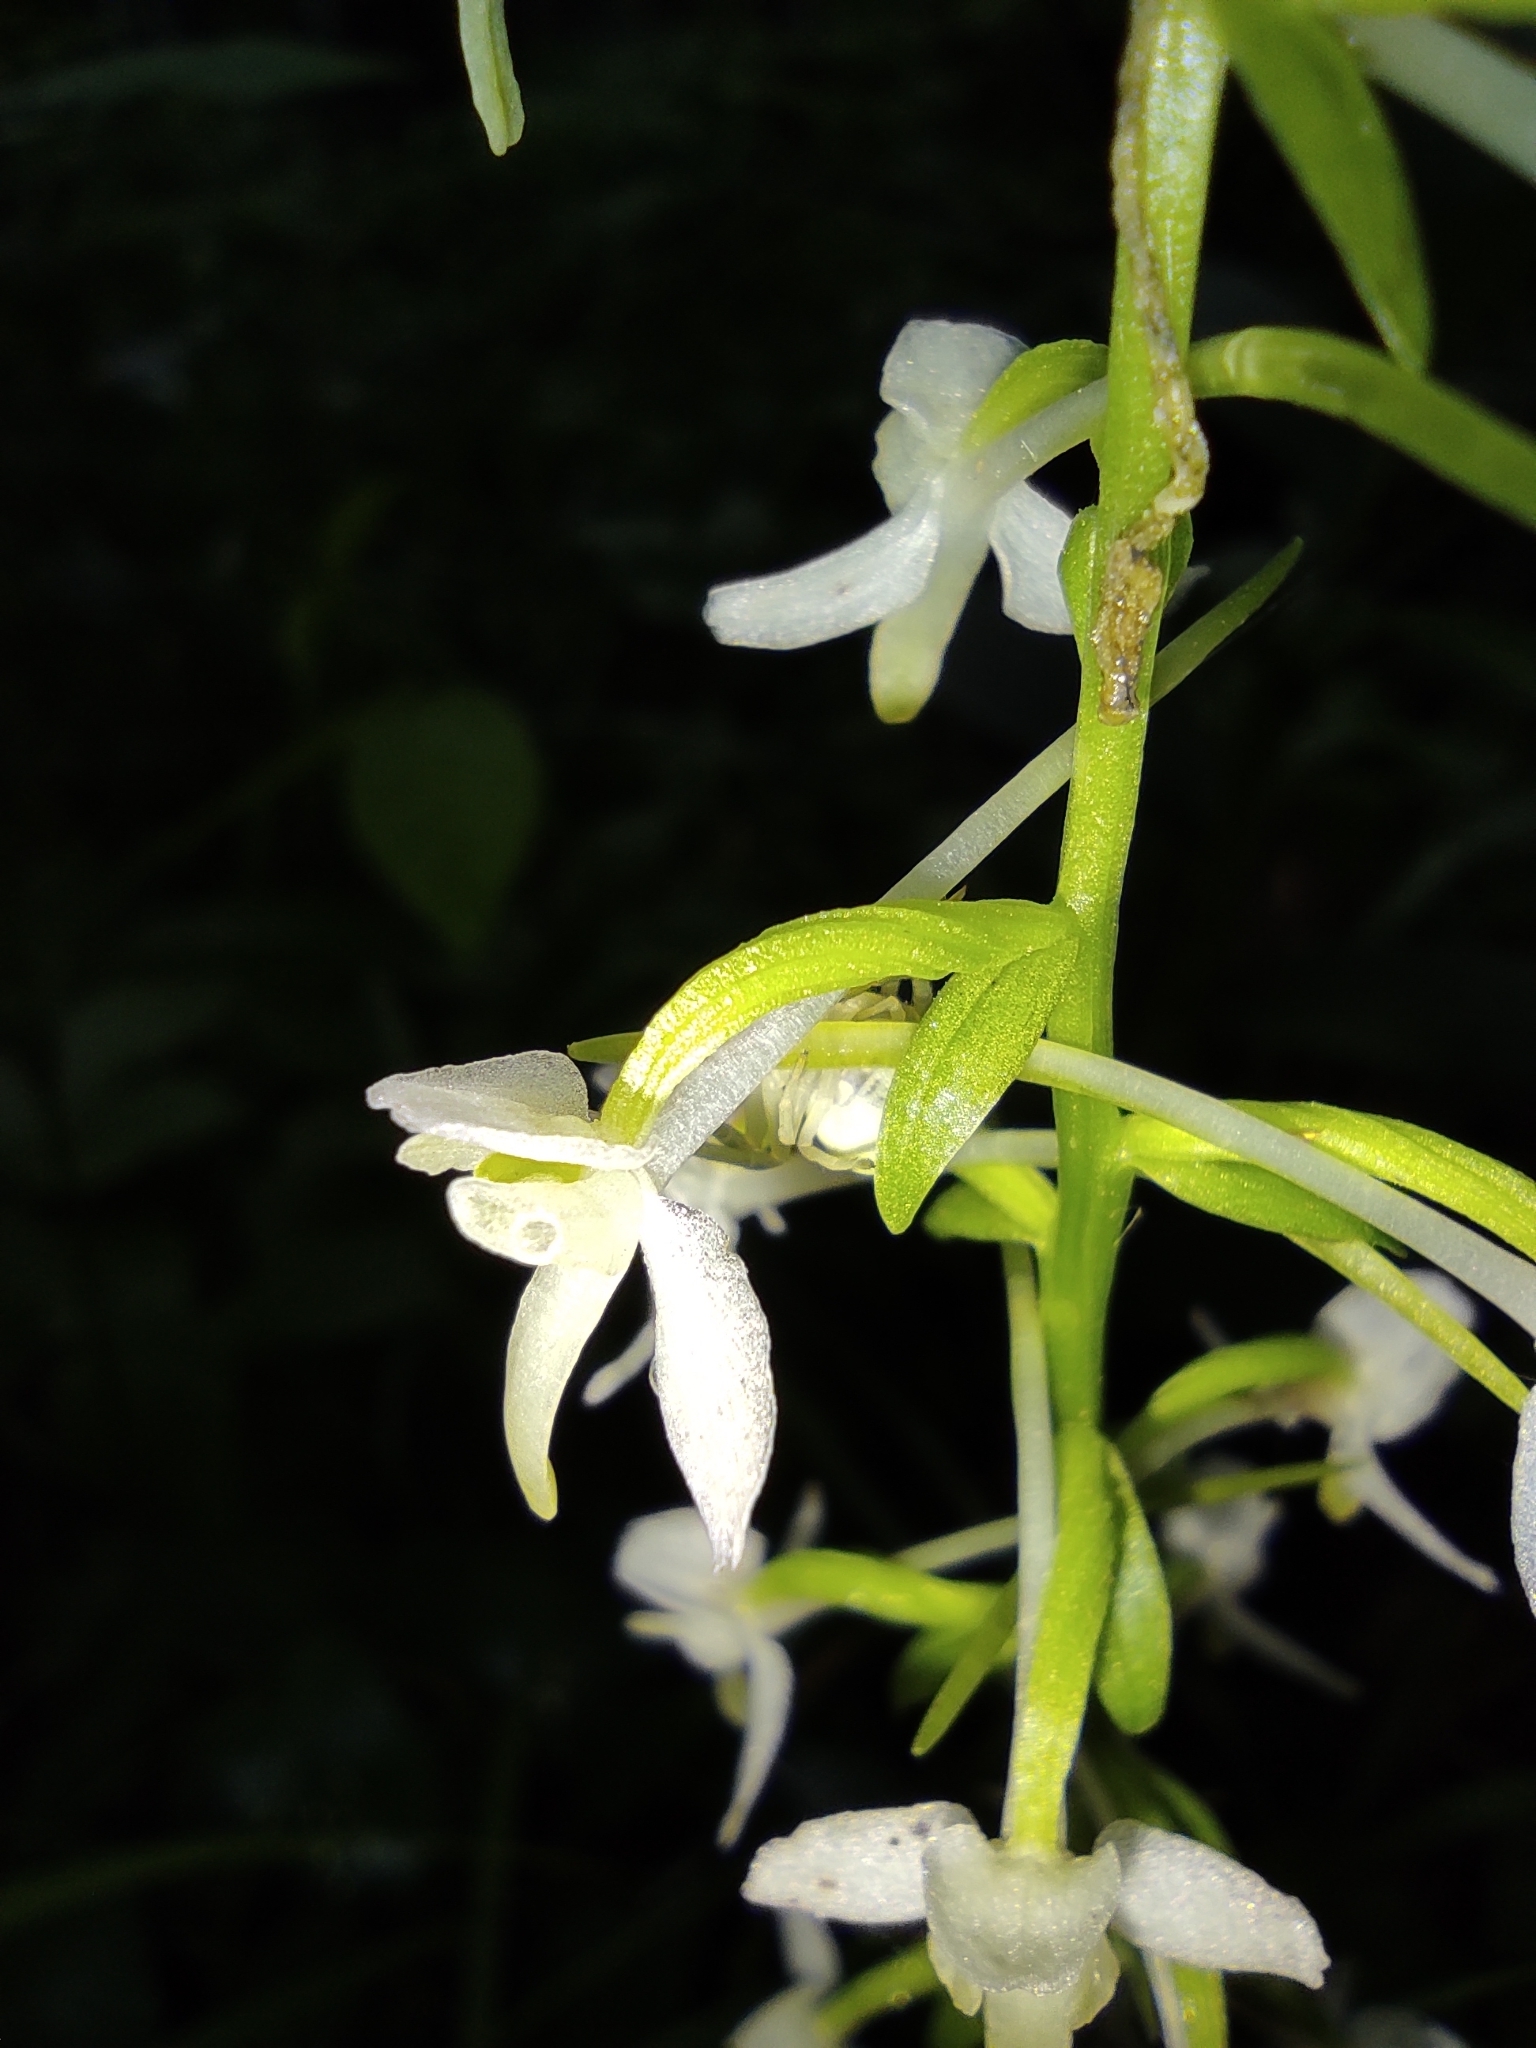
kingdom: Animalia
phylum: Arthropoda
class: Arachnida
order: Araneae
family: Thomisidae
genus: Misumena
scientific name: Misumena vatia
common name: Goldenrod crab spider
